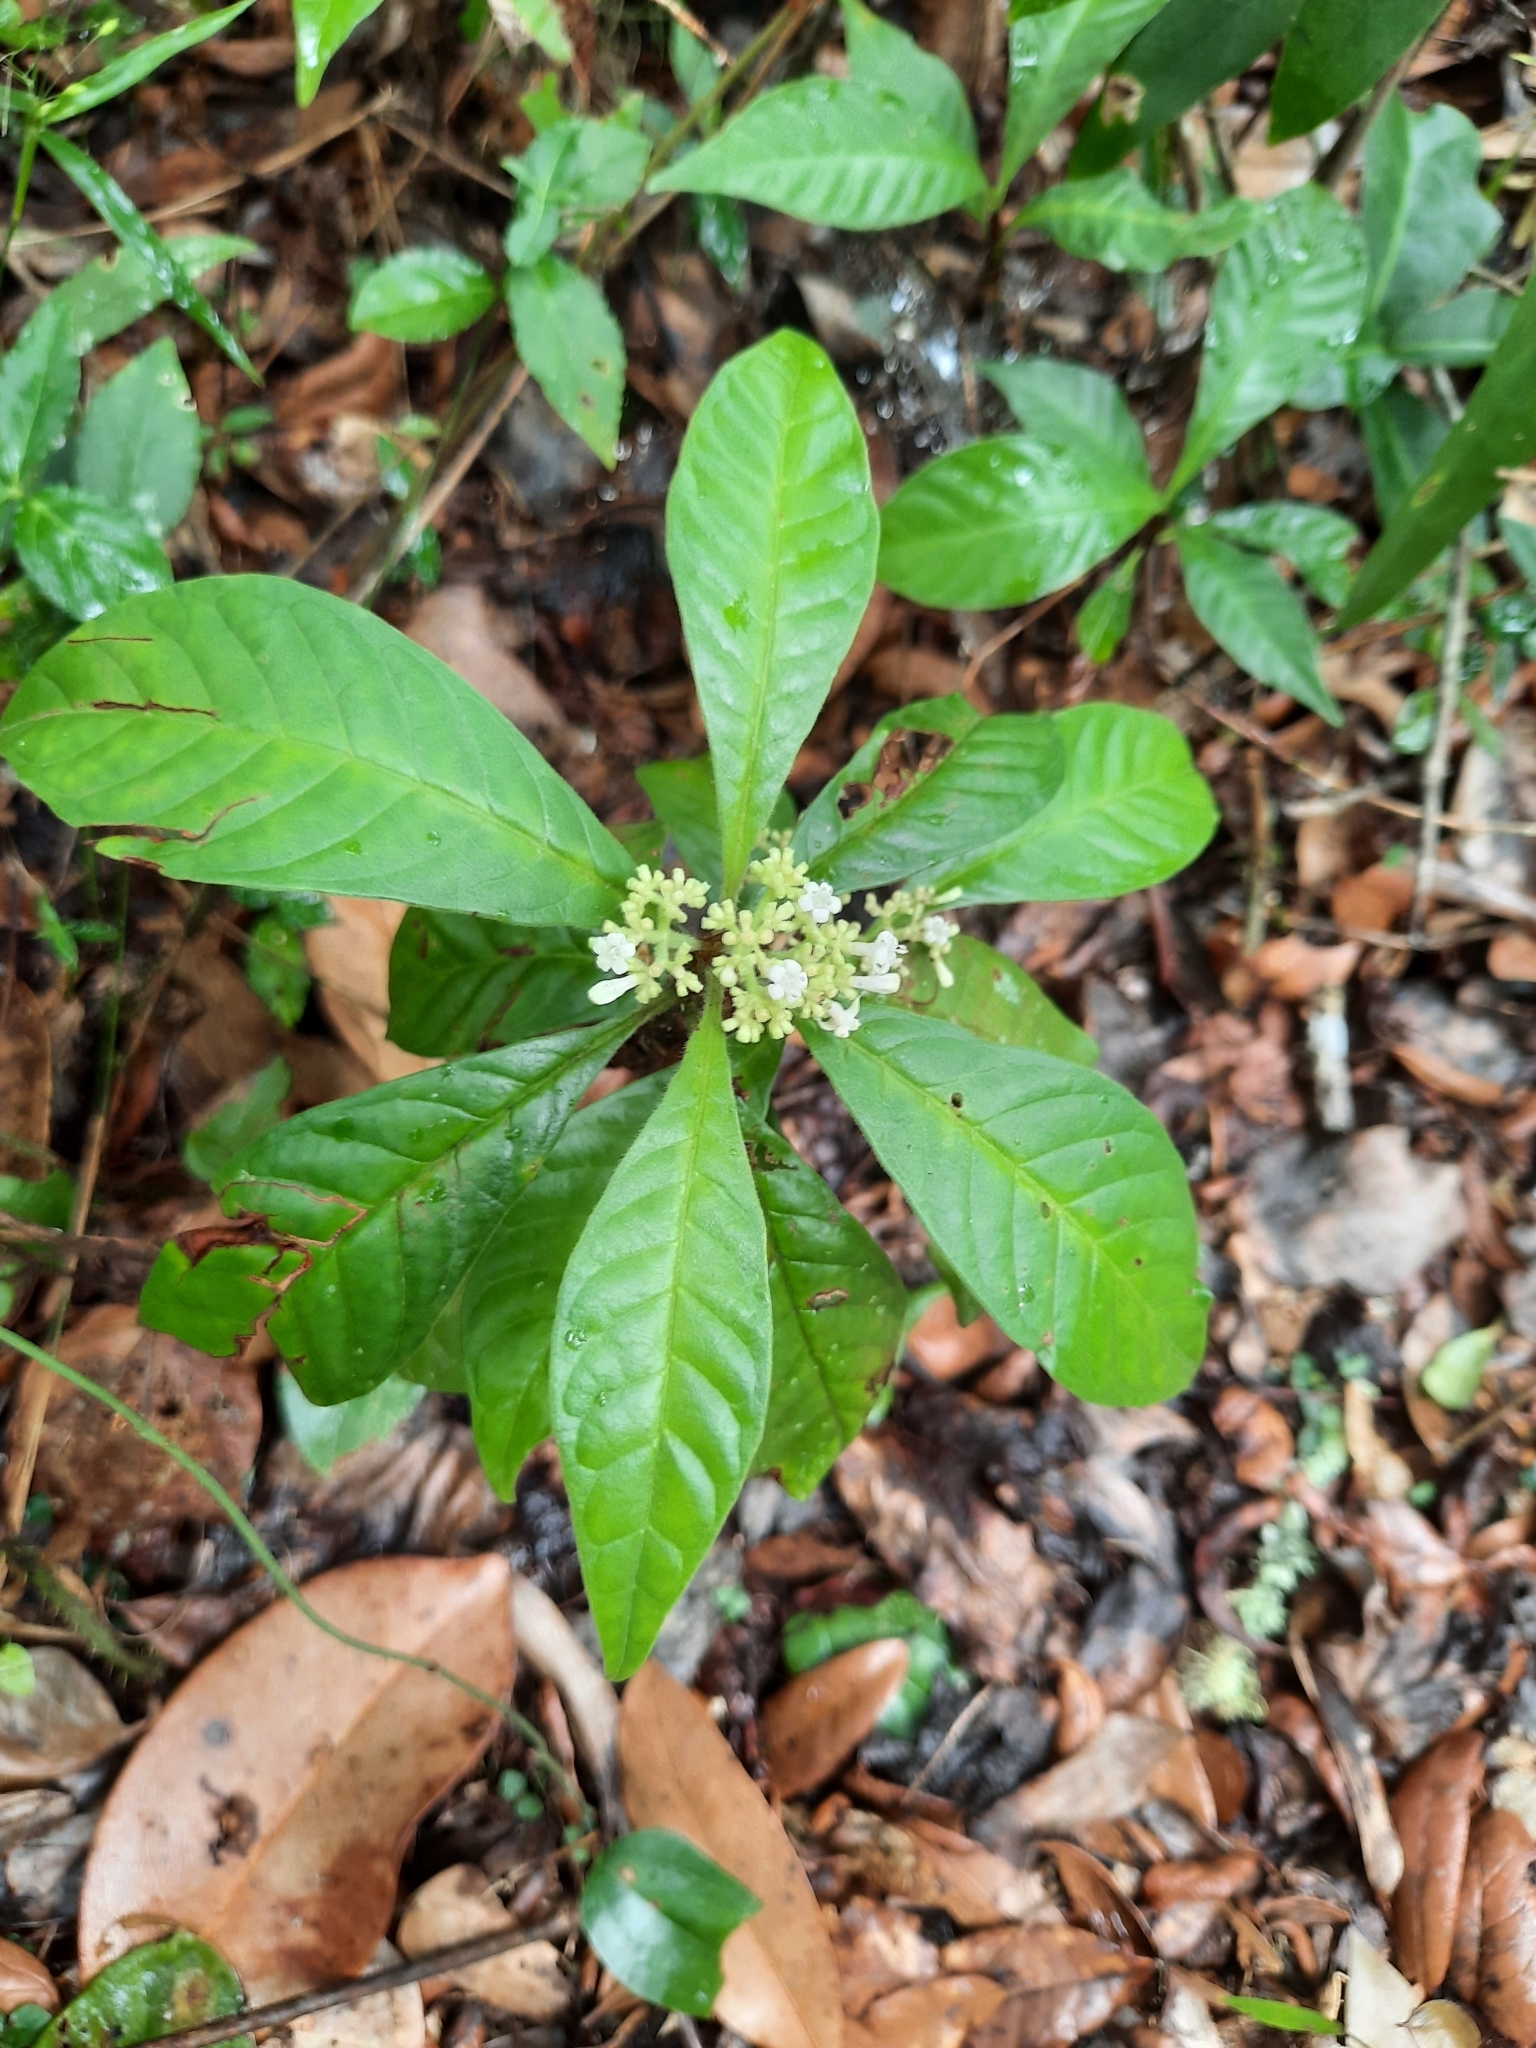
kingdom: Plantae
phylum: Tracheophyta
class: Magnoliopsida
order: Gentianales
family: Rubiaceae
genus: Psychotria
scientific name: Psychotria nervosa
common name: Bastard cankerberry
